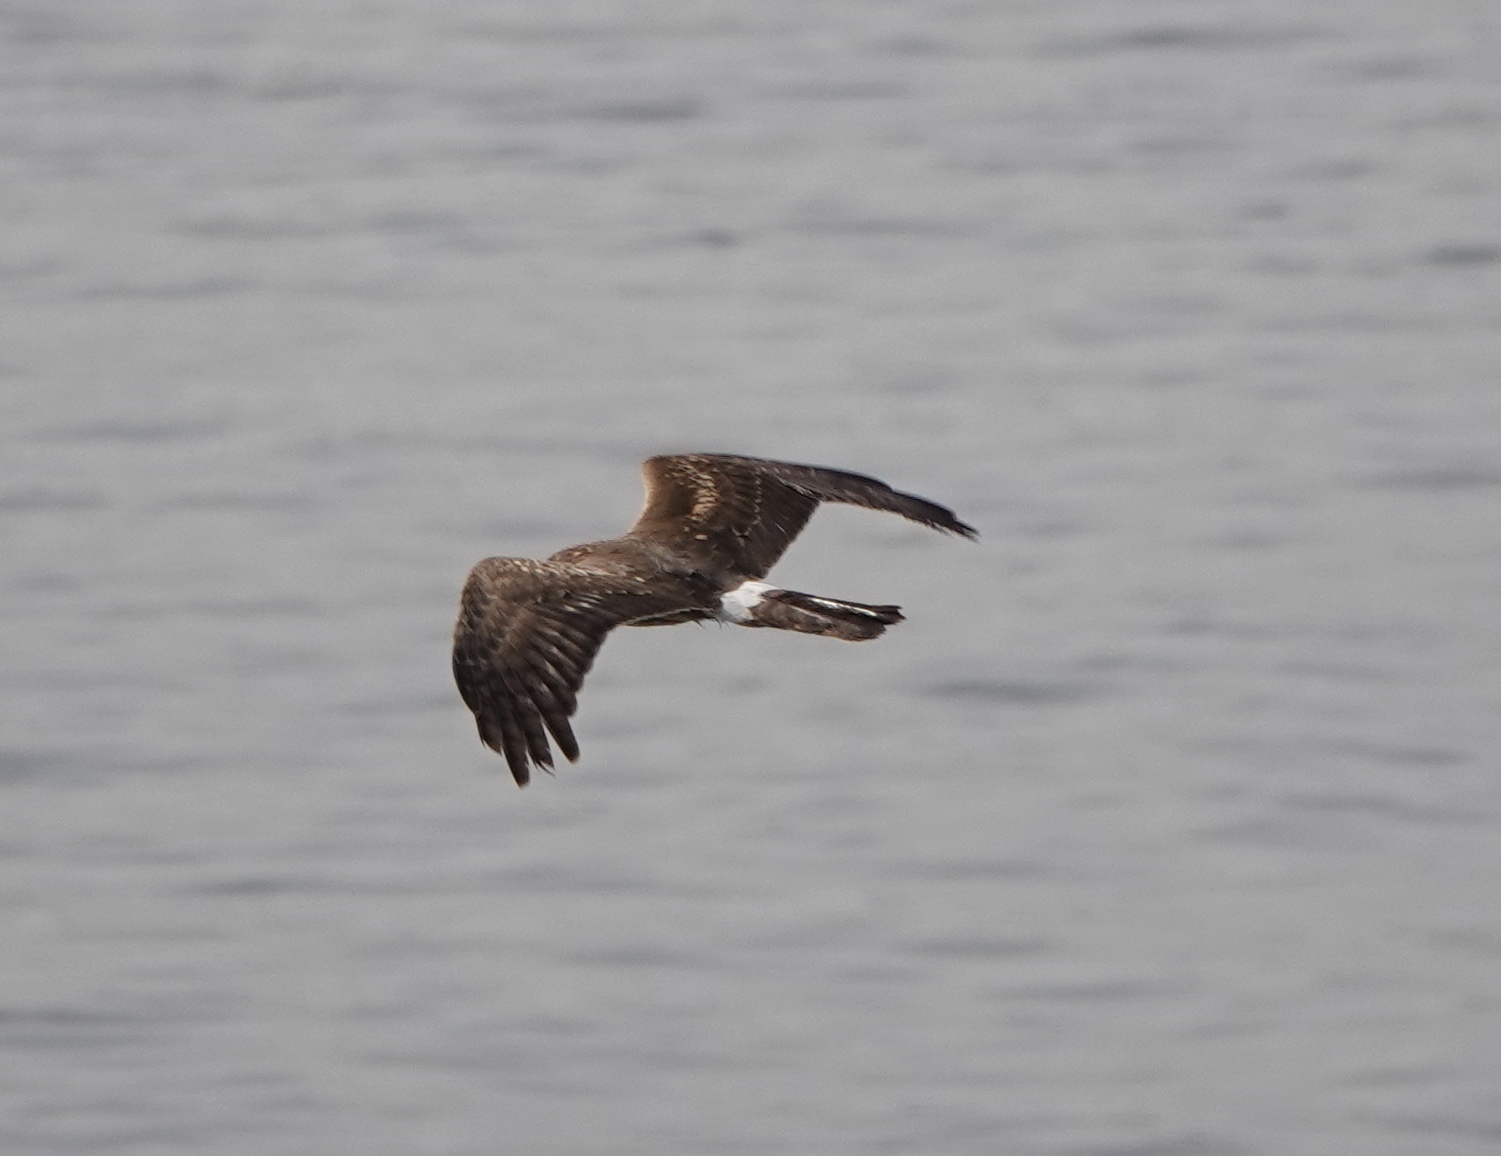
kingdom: Animalia
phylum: Chordata
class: Aves
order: Accipitriformes
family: Accipitridae
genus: Circus
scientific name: Circus cyaneus
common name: Hen harrier
